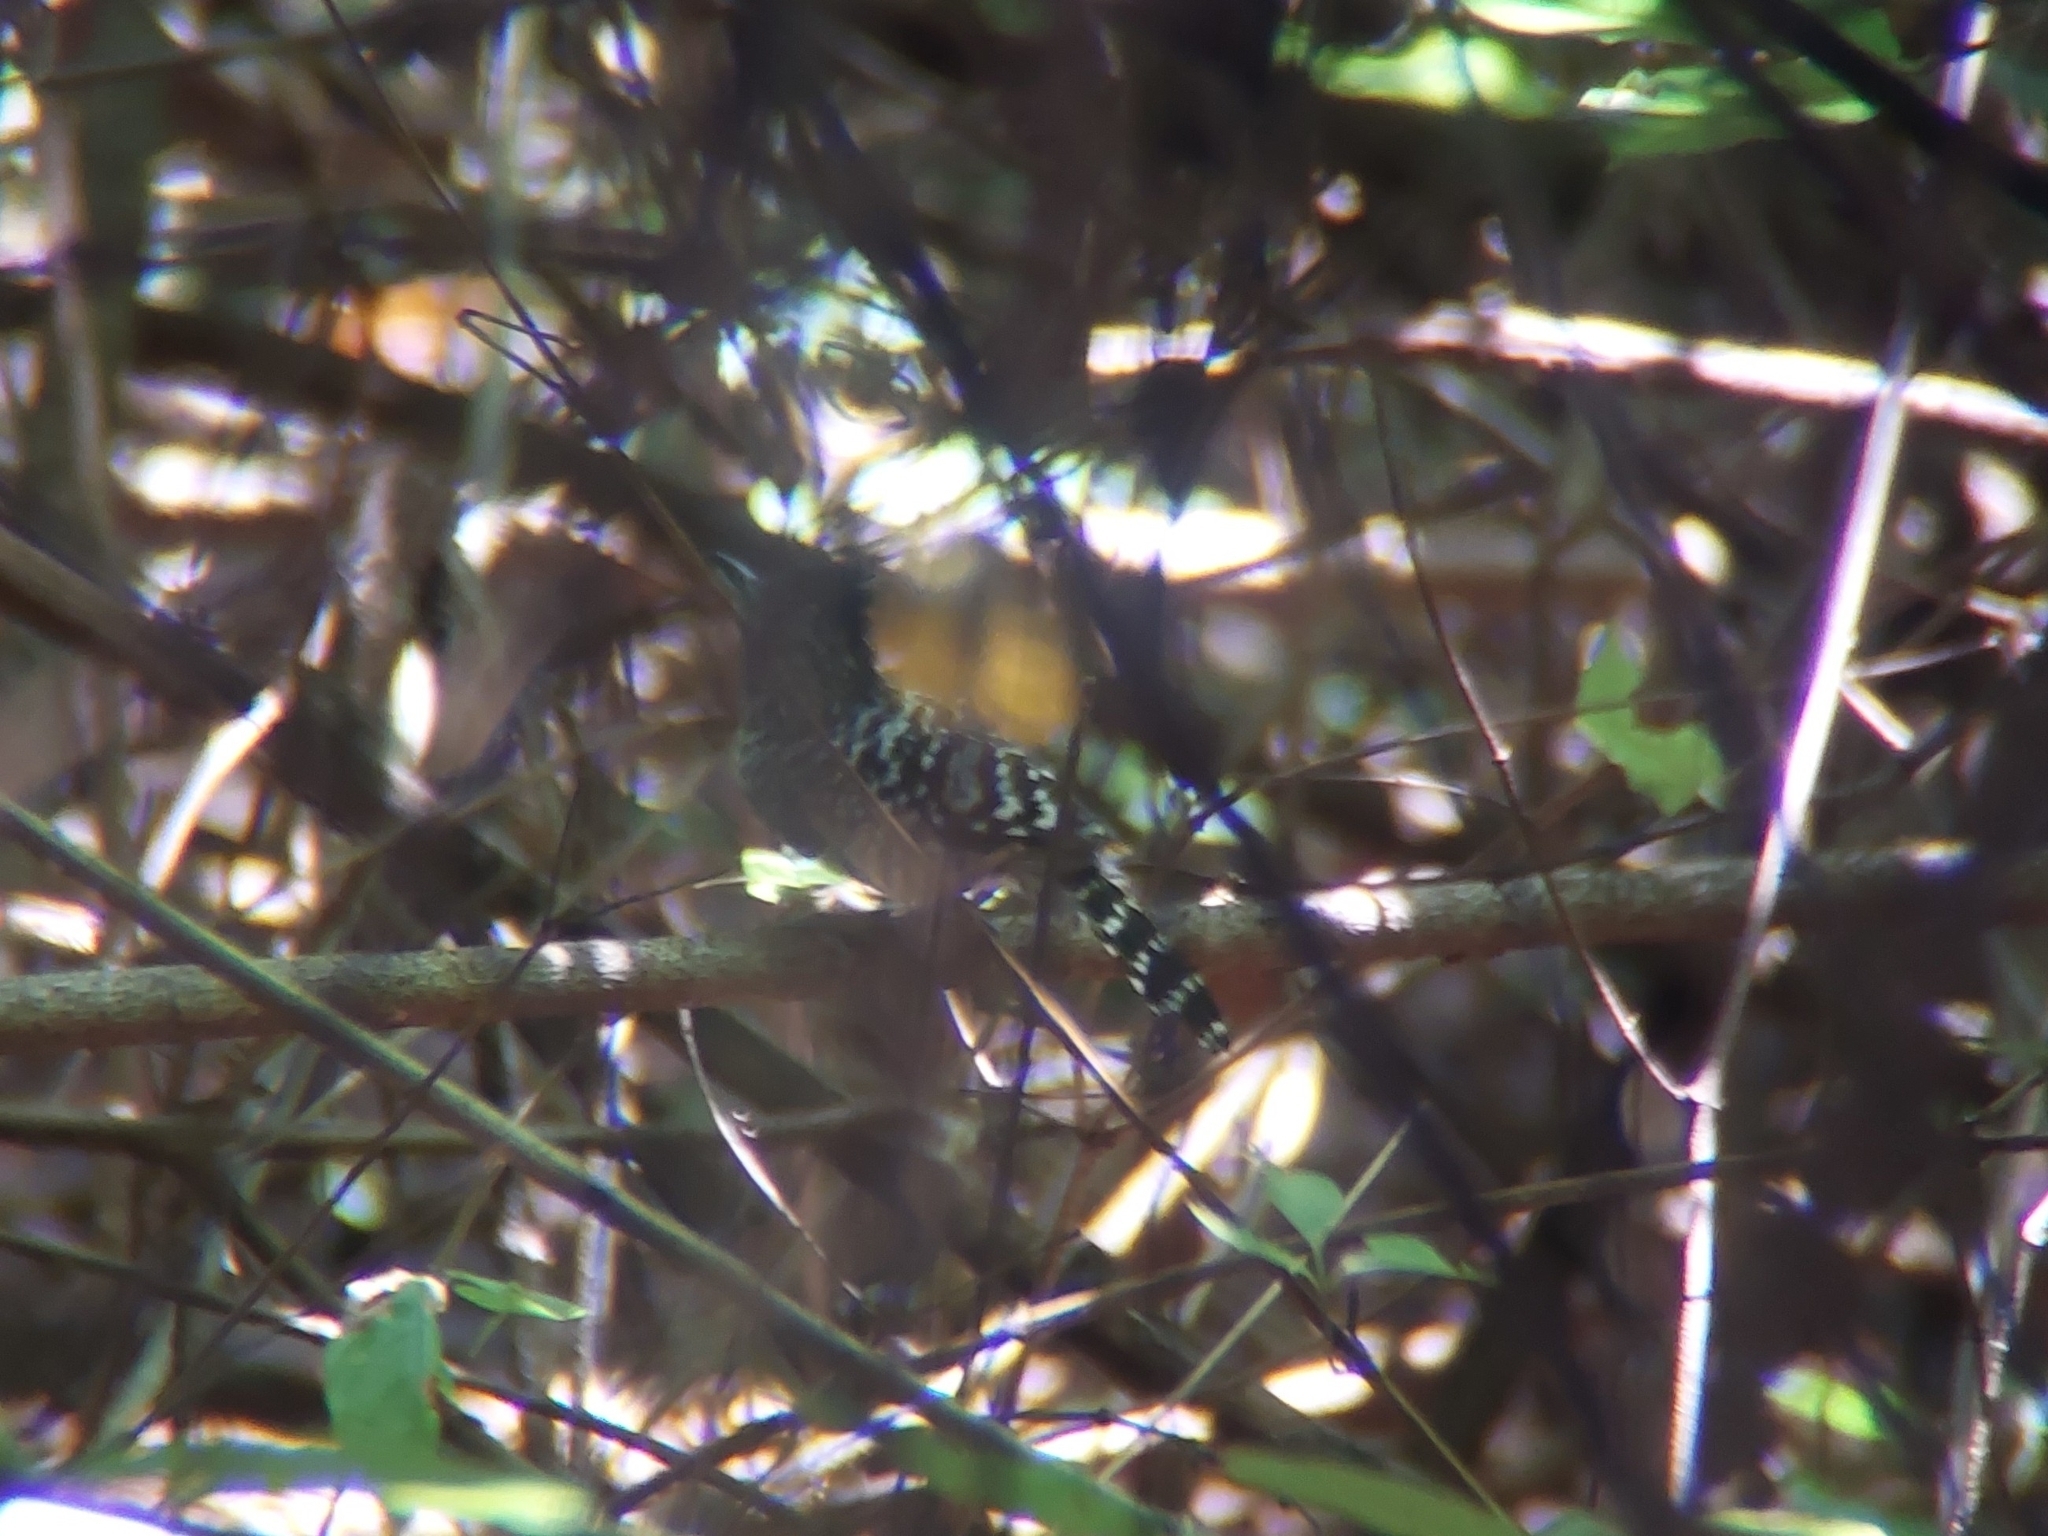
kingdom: Animalia
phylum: Chordata
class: Aves
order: Passeriformes
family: Thamnophilidae
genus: Thamnophilus
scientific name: Thamnophilus doliatus
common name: Barred antshrike
